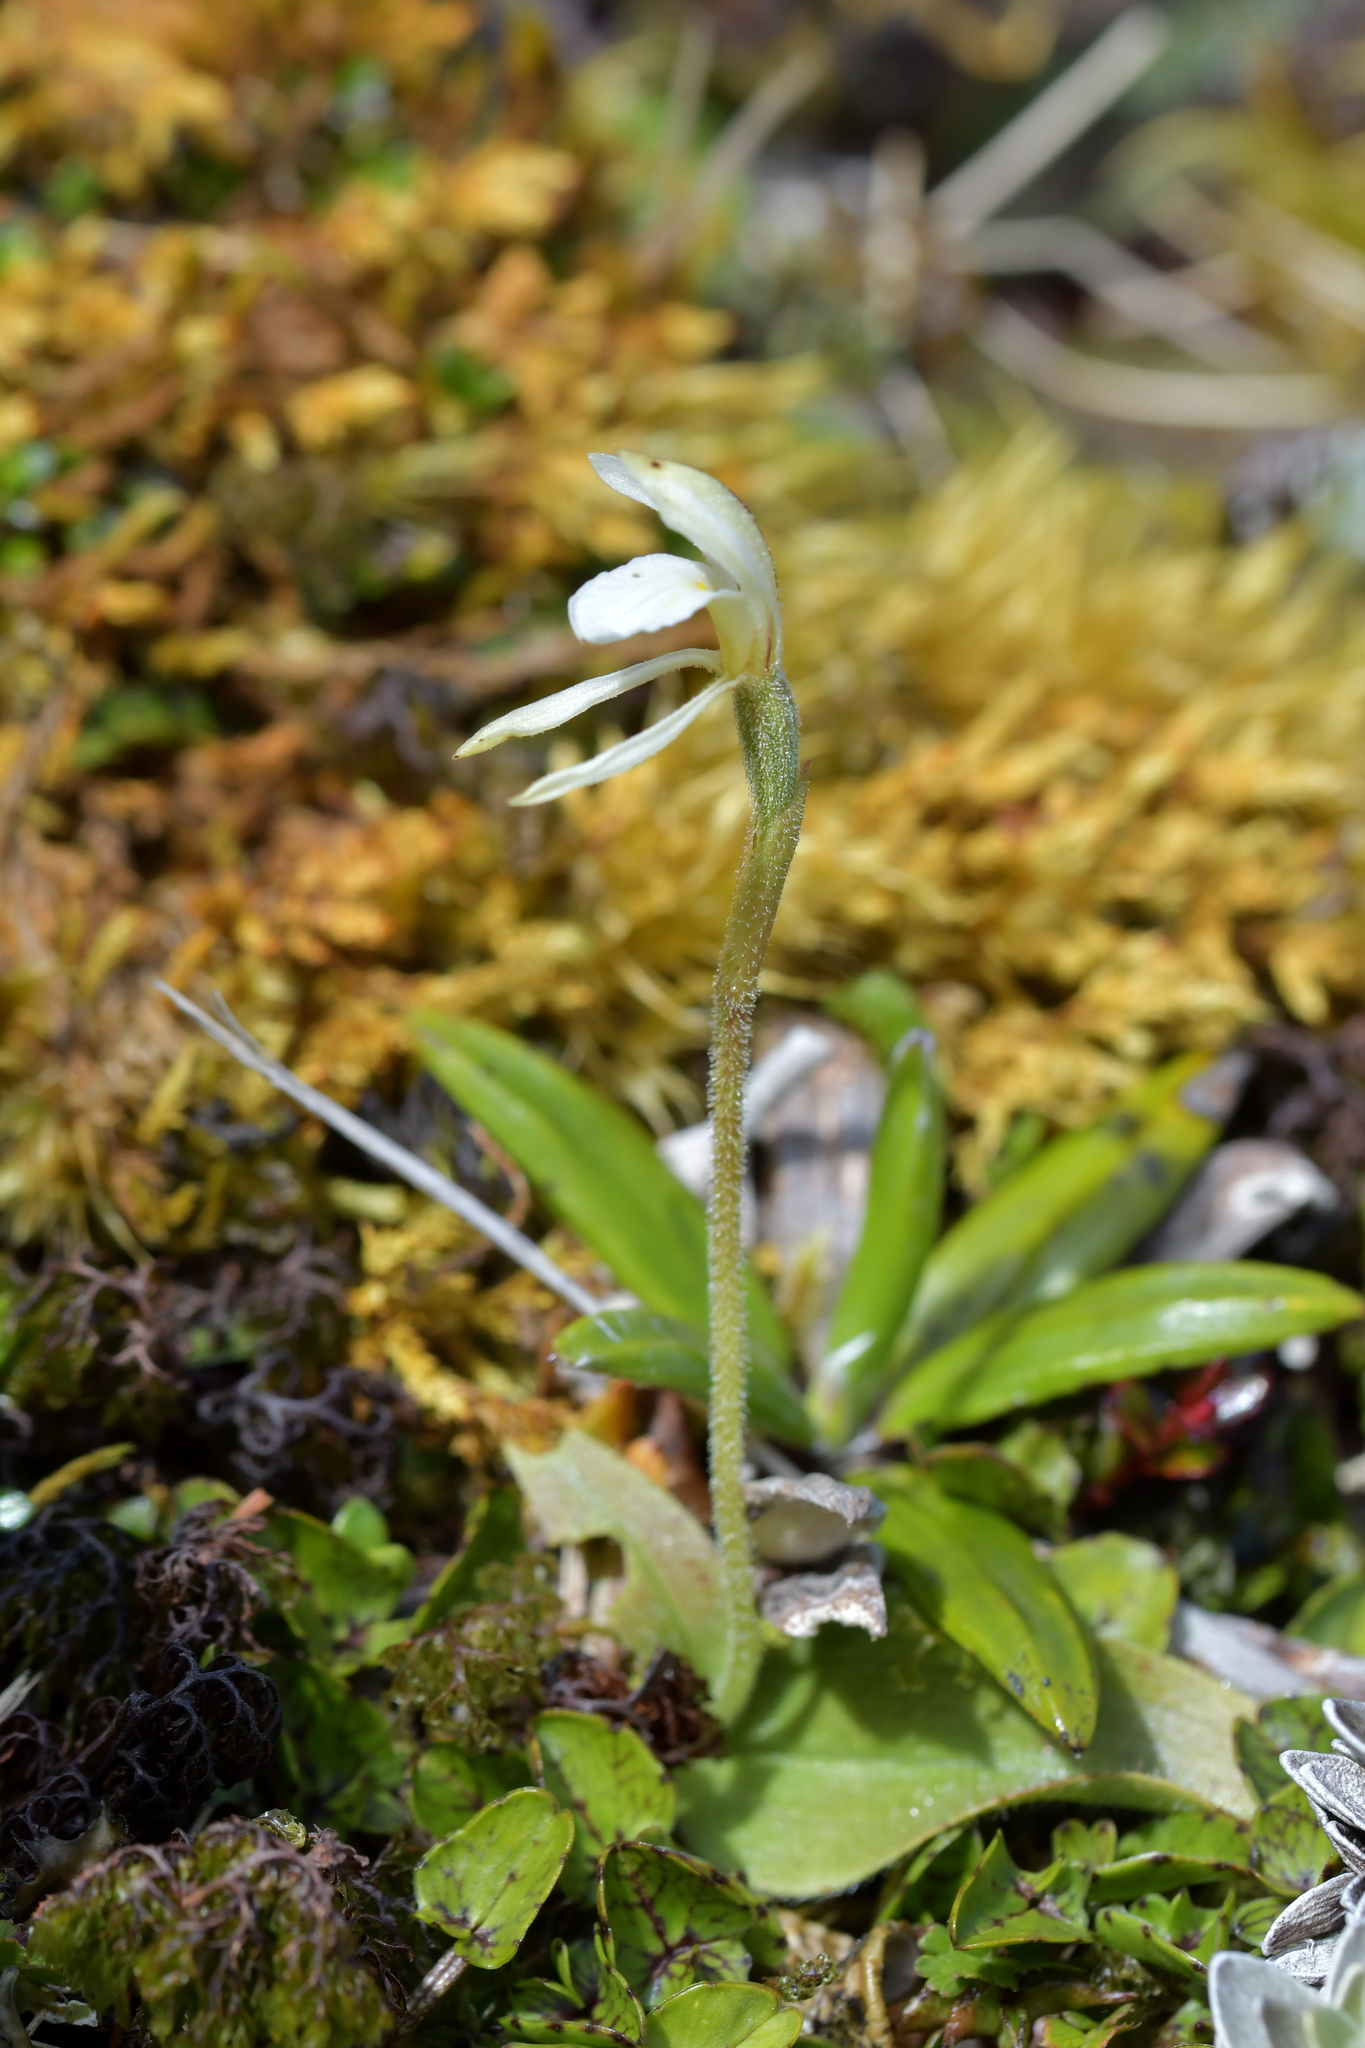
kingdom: Plantae
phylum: Tracheophyta
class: Liliopsida
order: Asparagales
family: Orchidaceae
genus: Aporostylis
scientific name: Aporostylis bifolia
